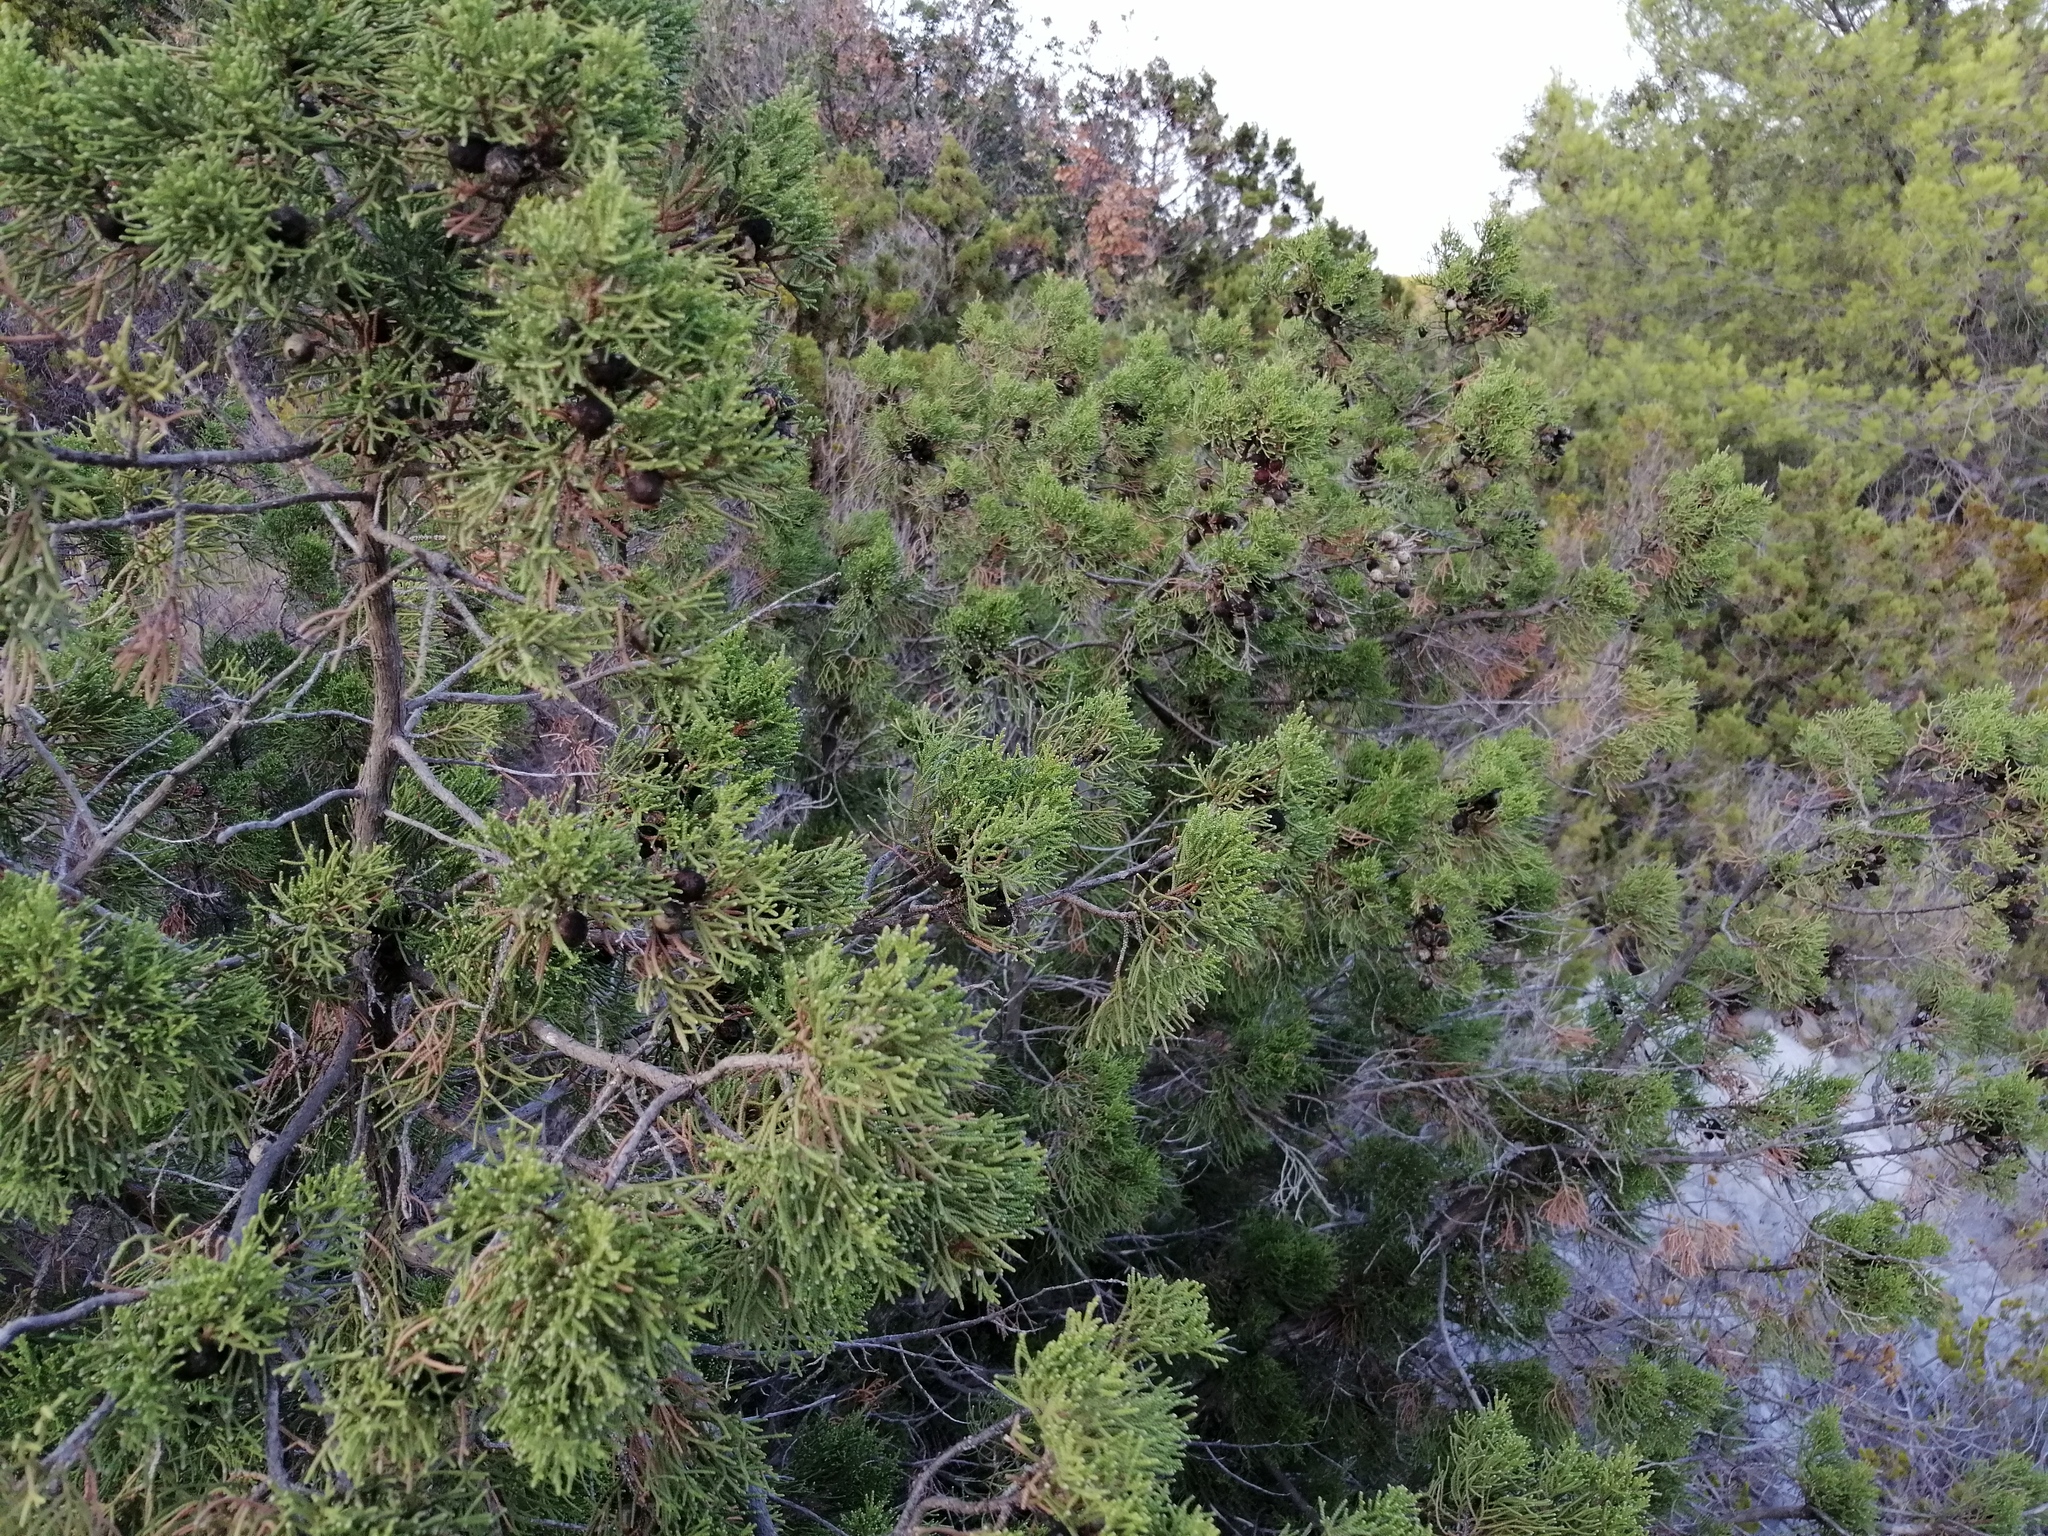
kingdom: Plantae
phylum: Tracheophyta
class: Pinopsida
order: Pinales
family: Cupressaceae
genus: Juniperus
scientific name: Juniperus phoenicea
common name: Phoenician juniper
